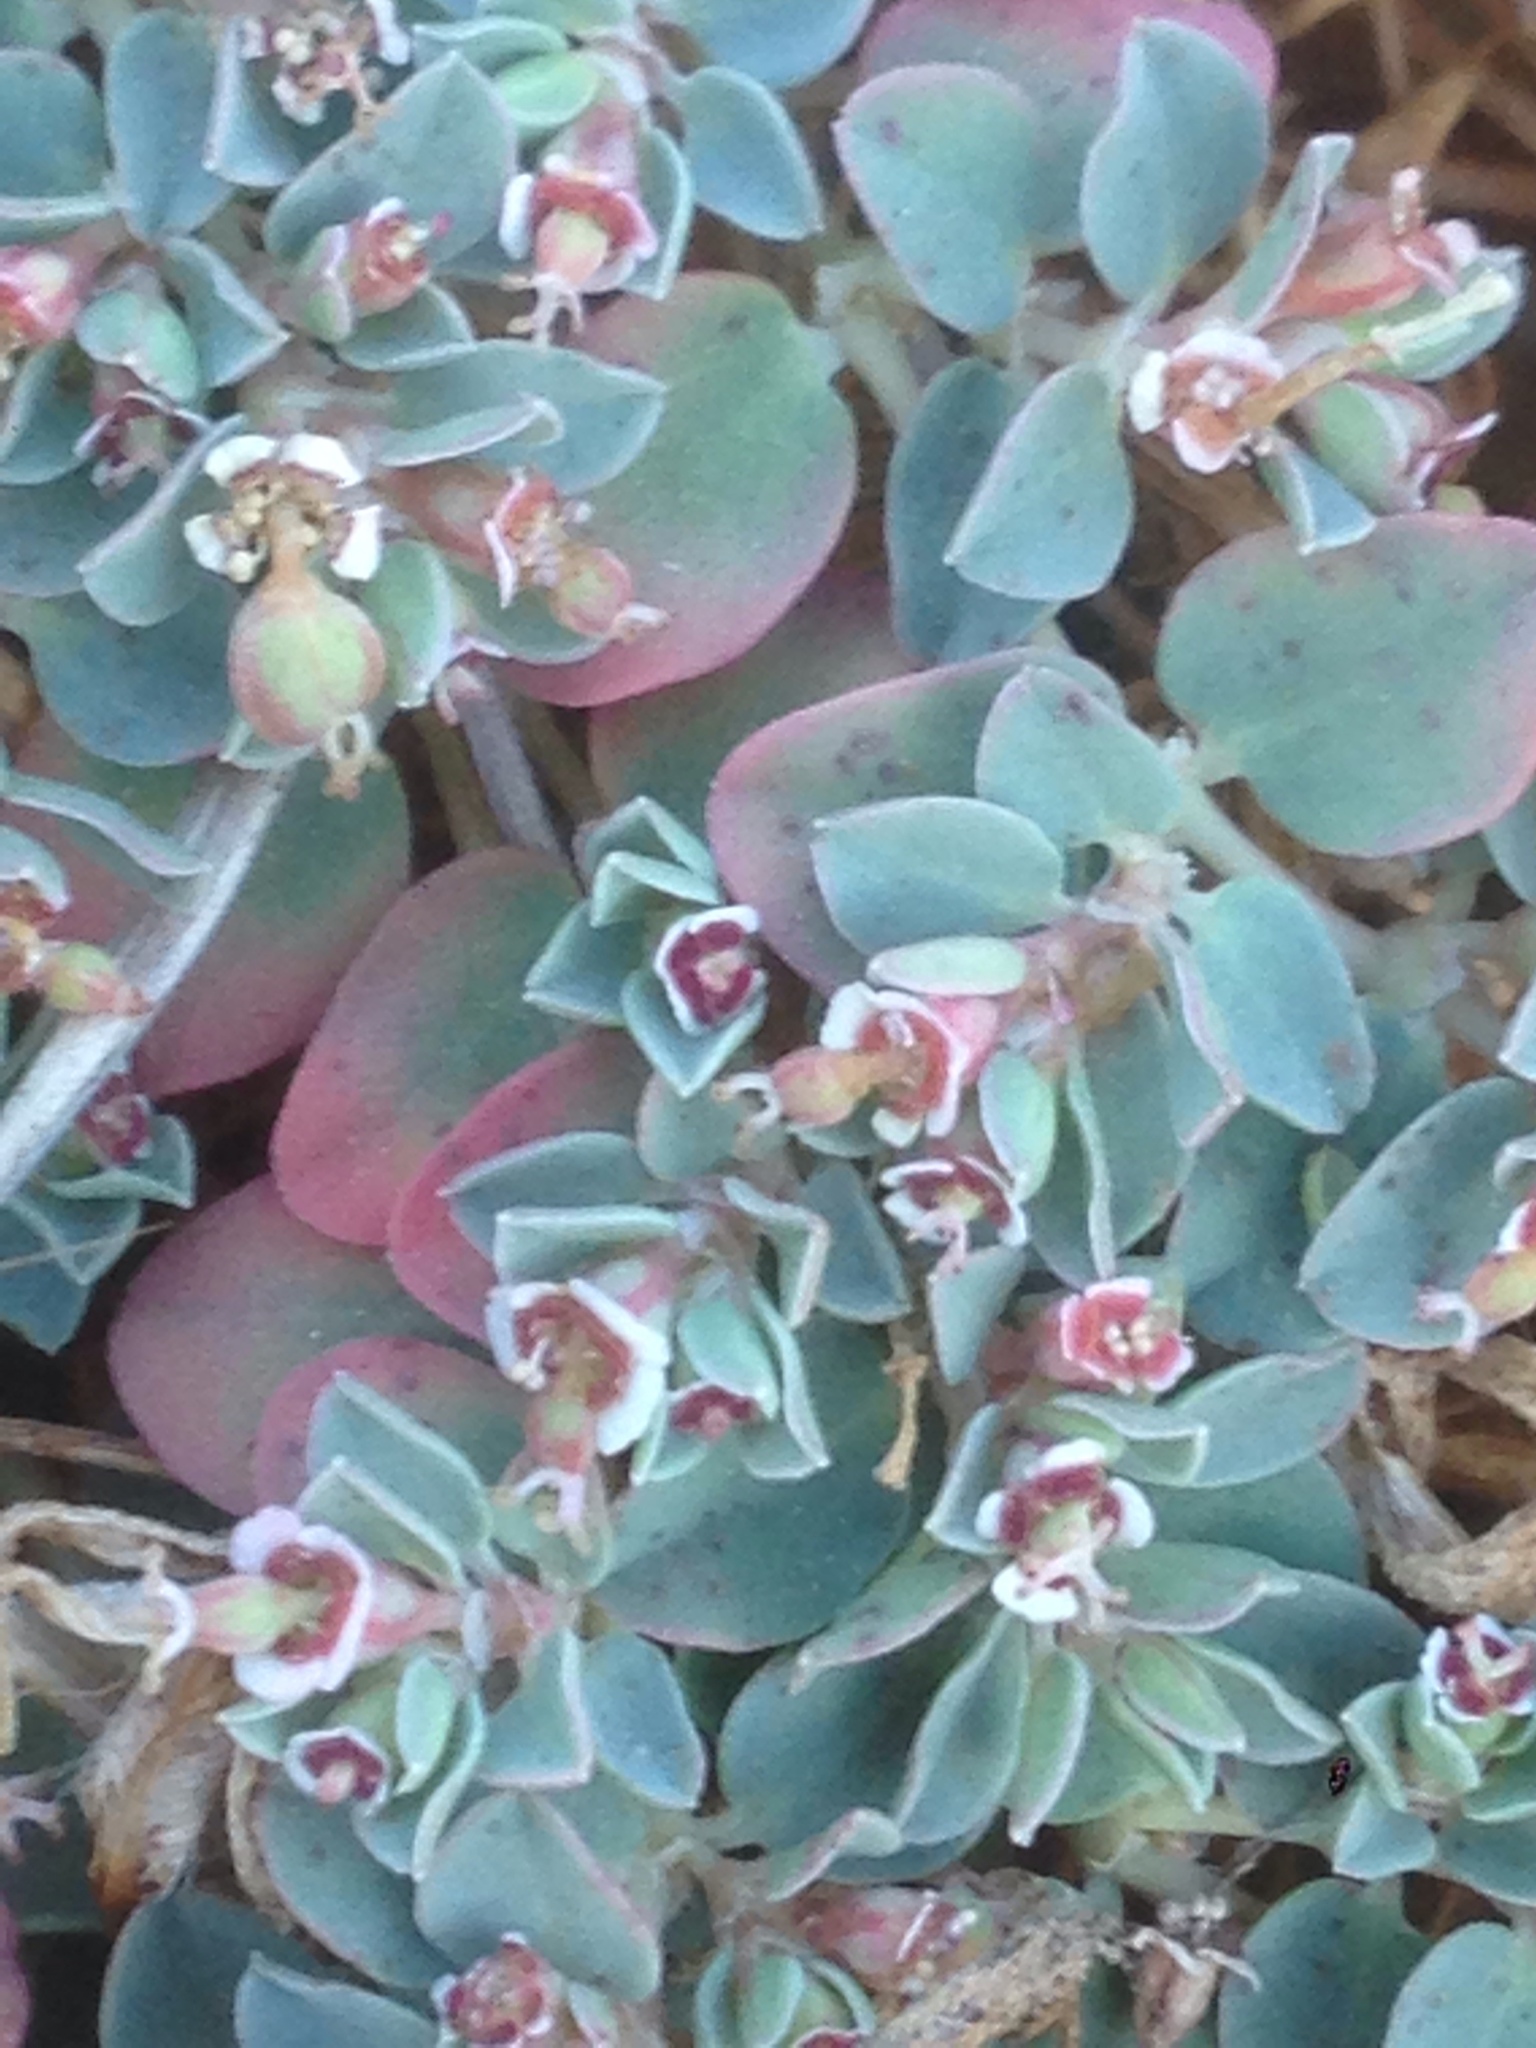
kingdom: Plantae
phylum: Tracheophyta
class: Magnoliopsida
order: Malpighiales
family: Euphorbiaceae
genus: Euphorbia
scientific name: Euphorbia albomarginata
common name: Whitemargin sandmat
